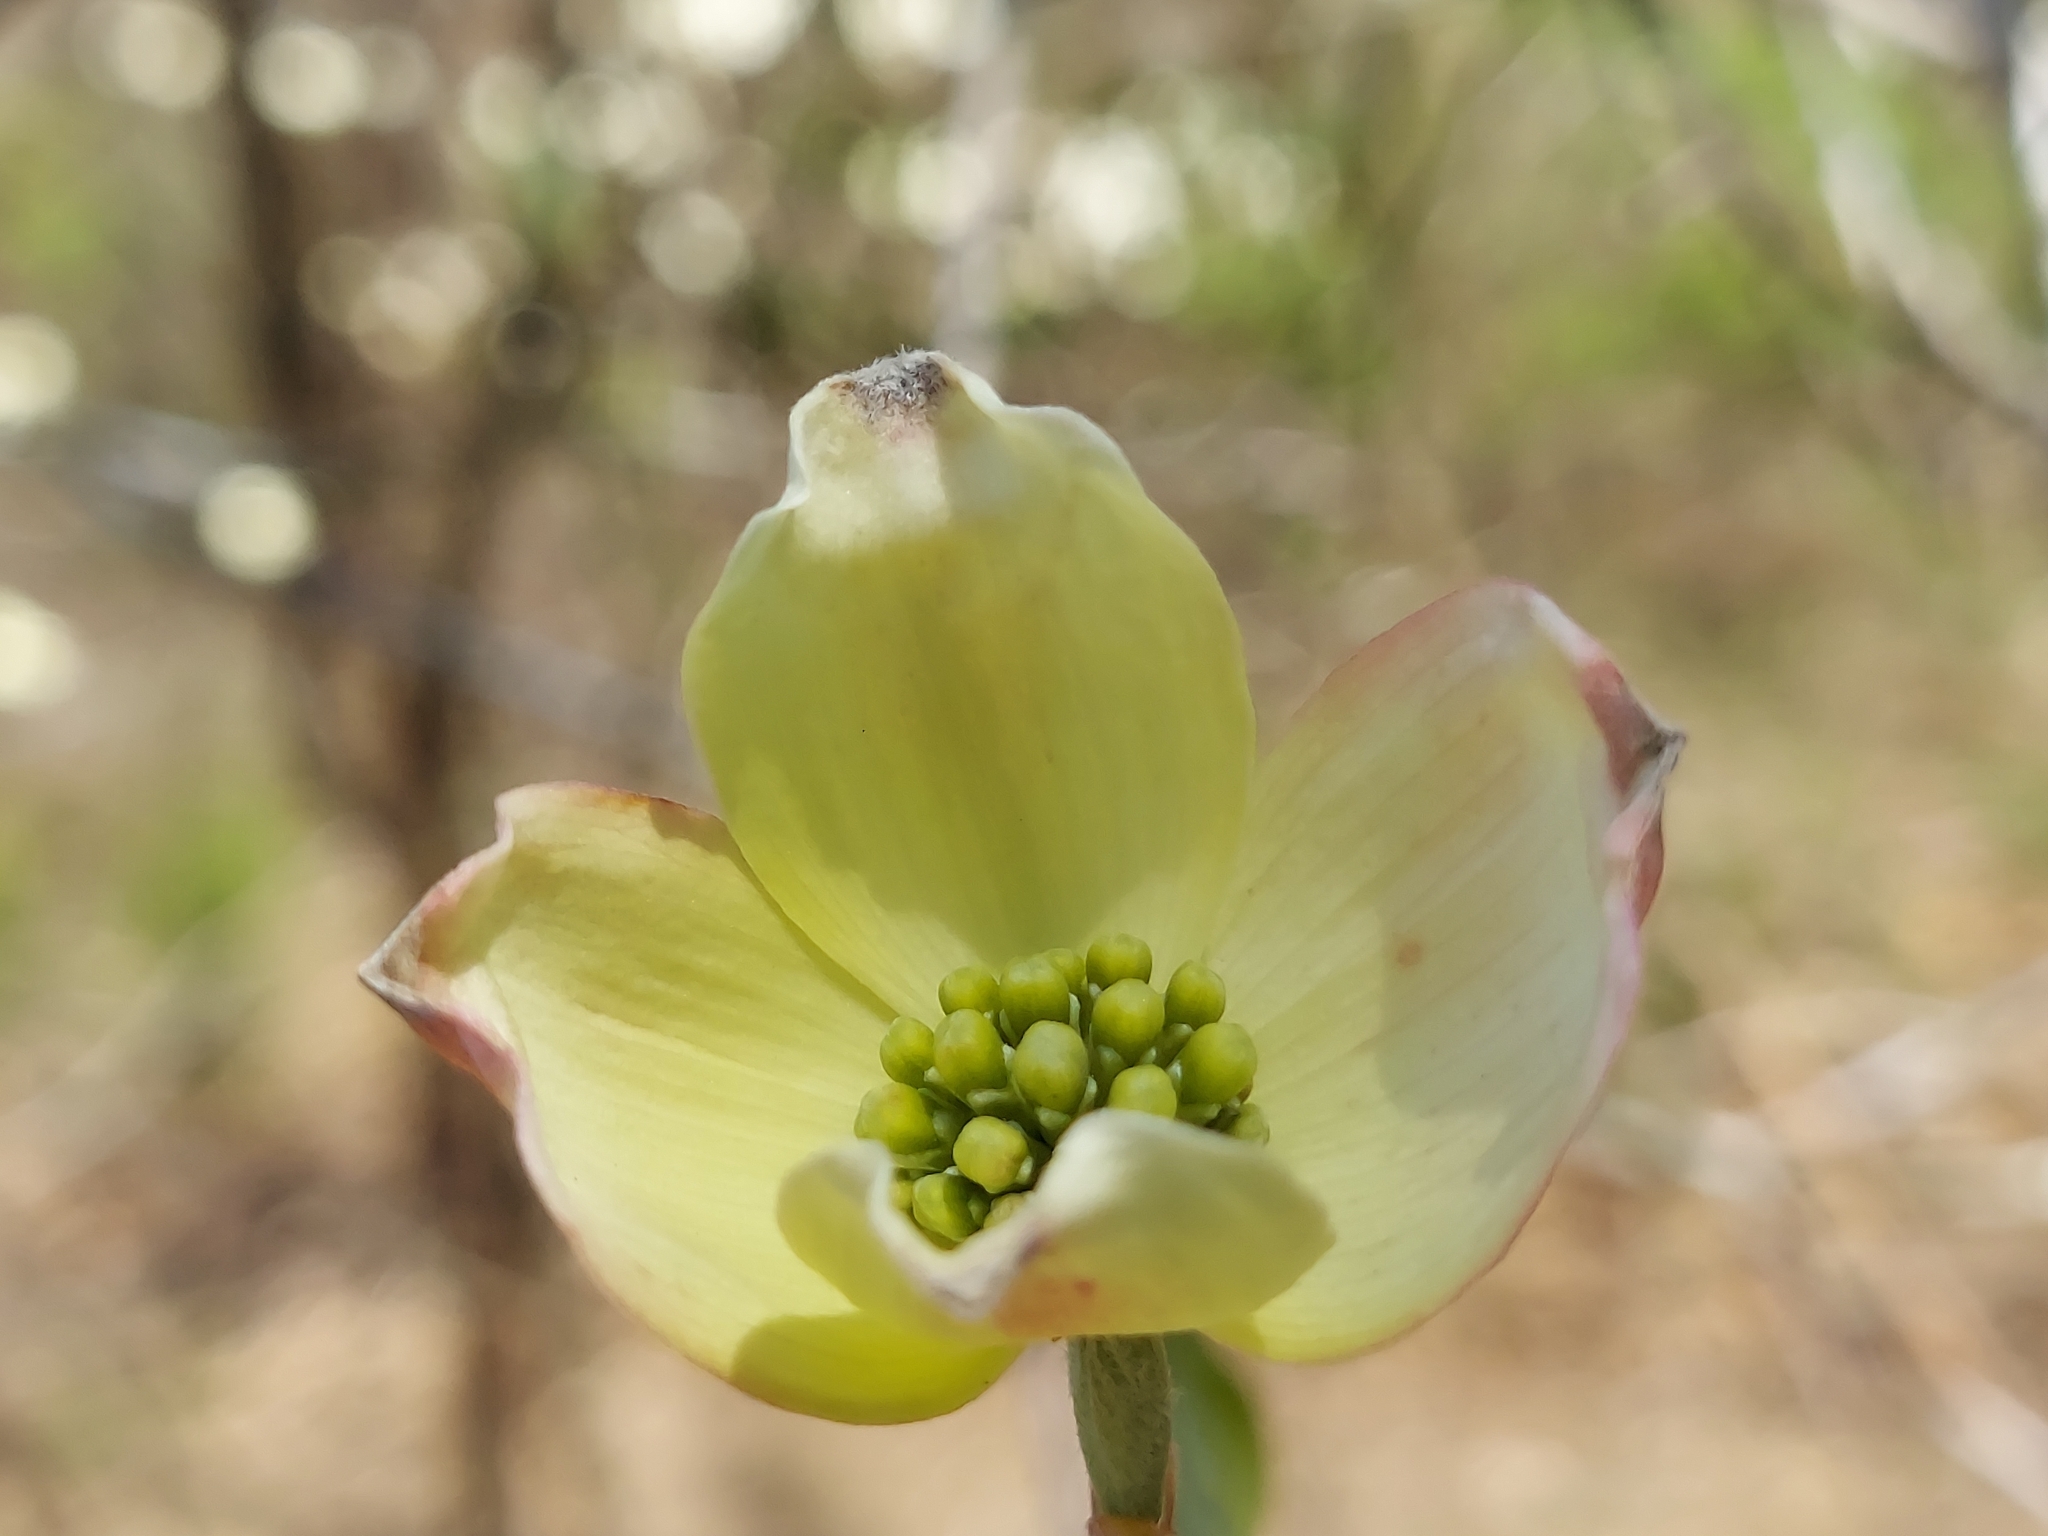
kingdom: Plantae
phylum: Tracheophyta
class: Magnoliopsida
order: Cornales
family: Cornaceae
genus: Cornus
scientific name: Cornus florida
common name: Flowering dogwood
